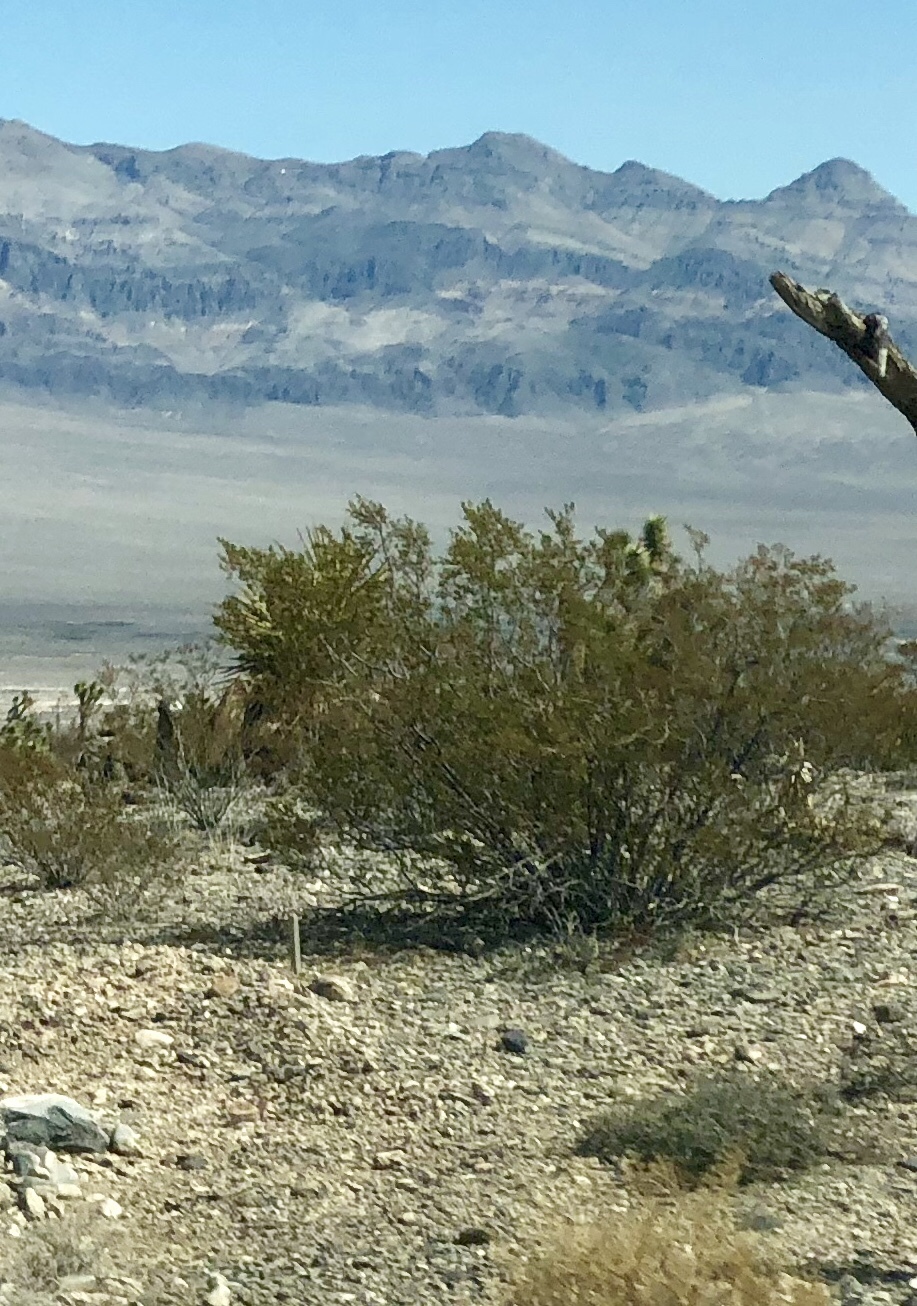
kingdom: Plantae
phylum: Tracheophyta
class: Magnoliopsida
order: Zygophyllales
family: Zygophyllaceae
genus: Larrea
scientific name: Larrea tridentata
